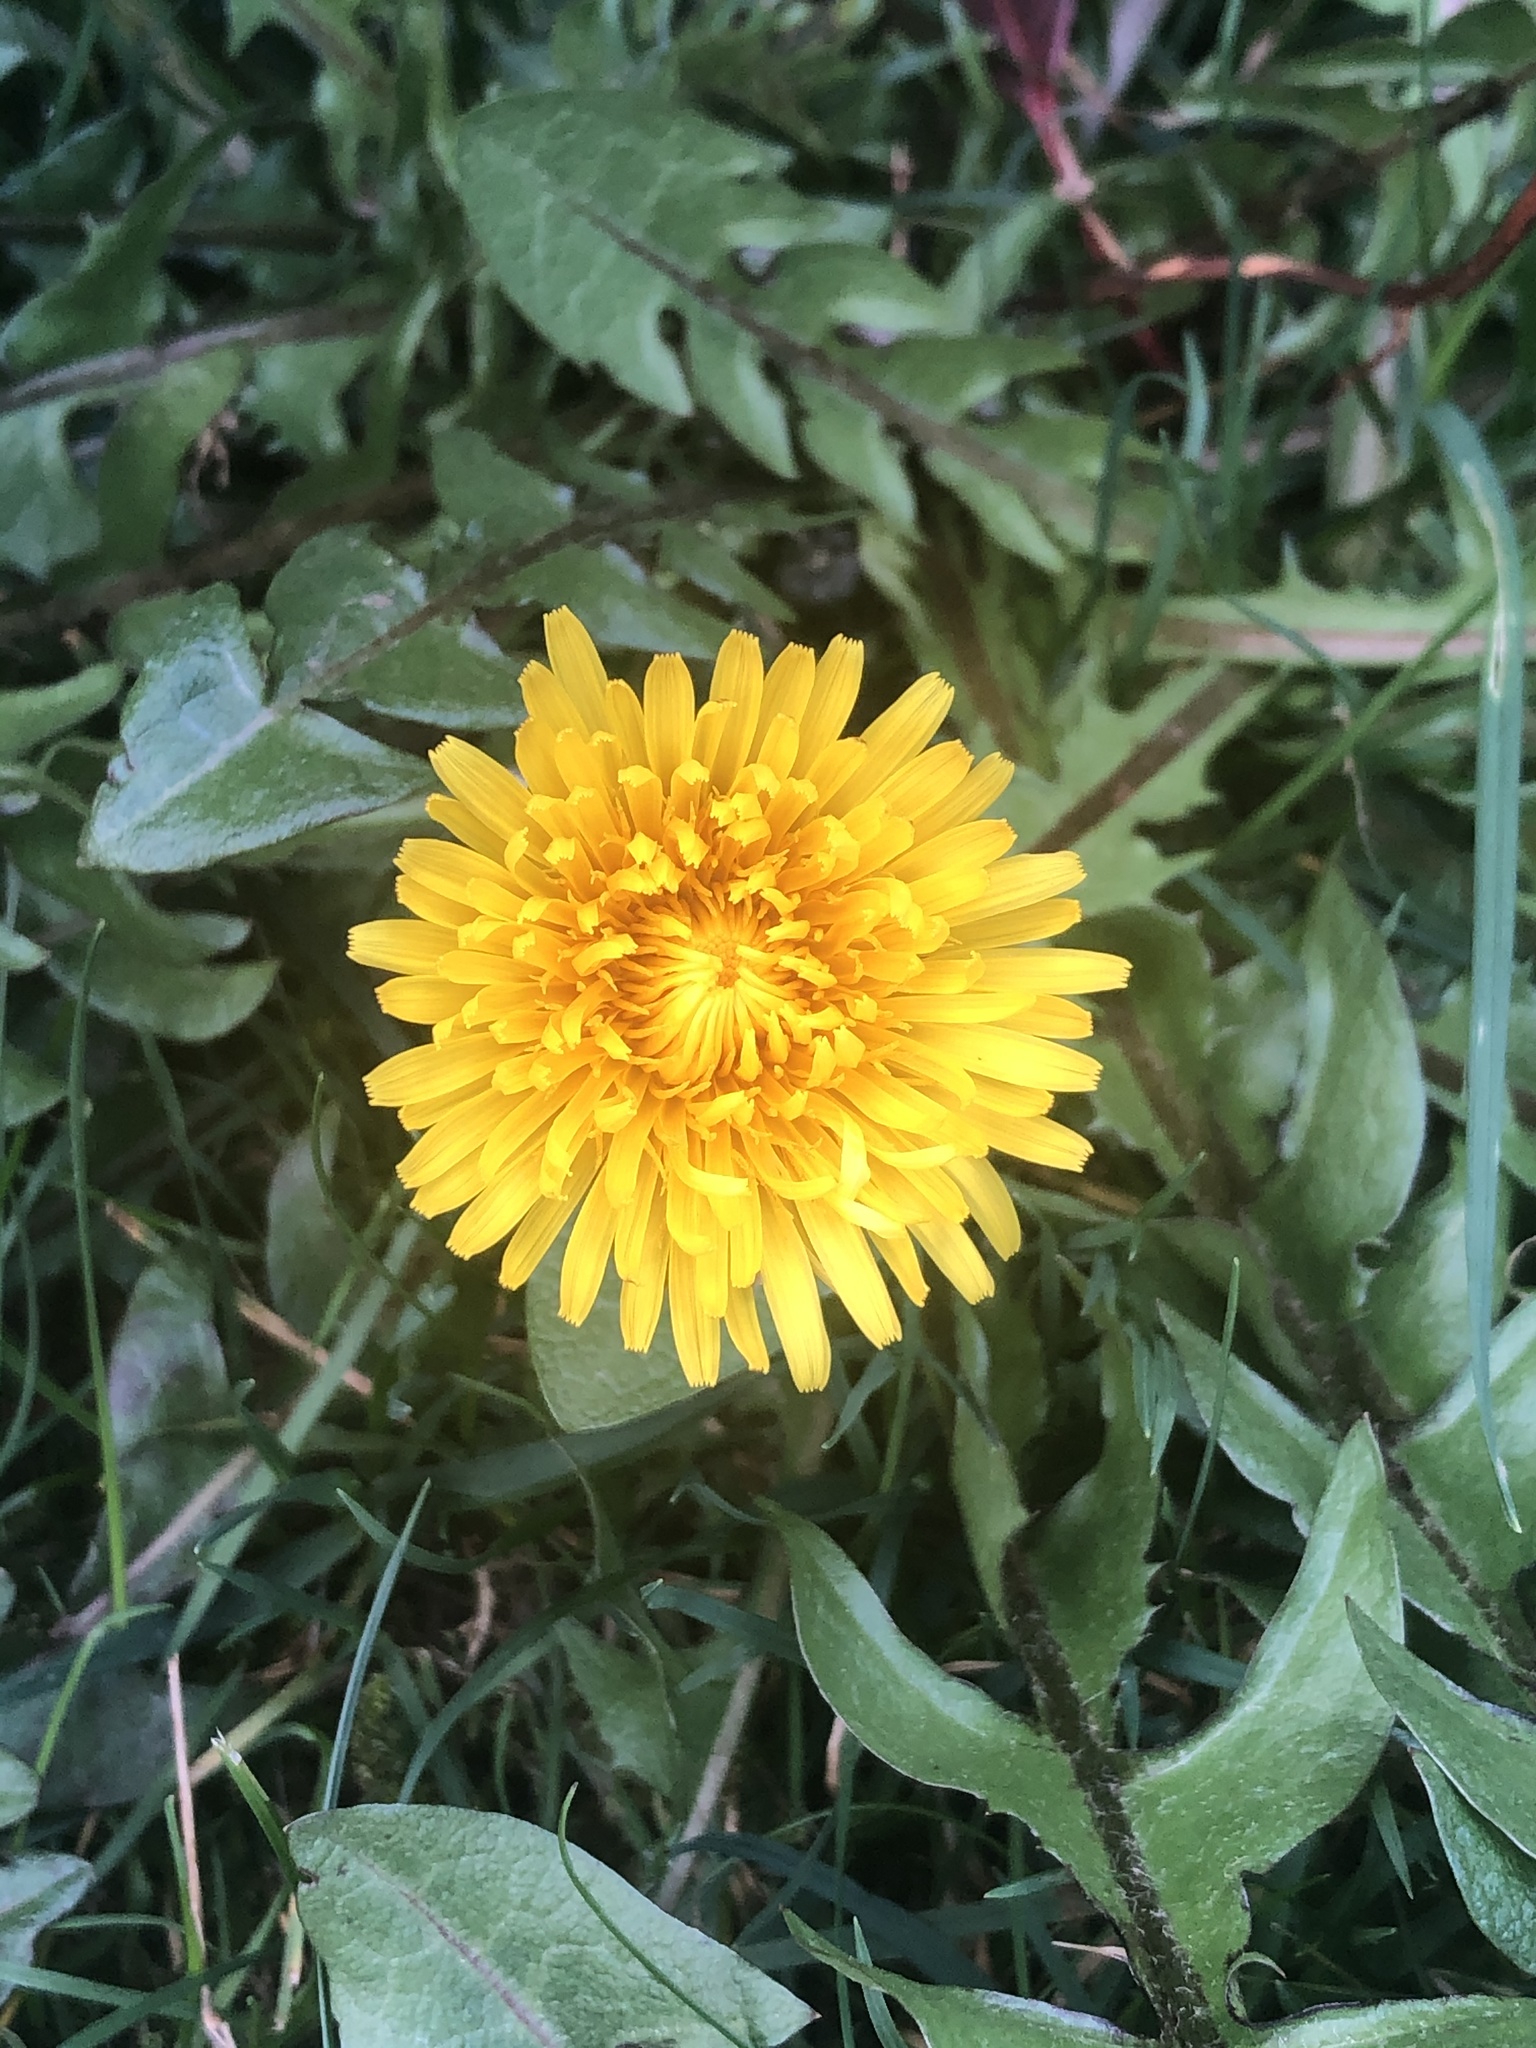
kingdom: Plantae
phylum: Tracheophyta
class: Magnoliopsida
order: Asterales
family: Asteraceae
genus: Taraxacum
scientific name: Taraxacum
